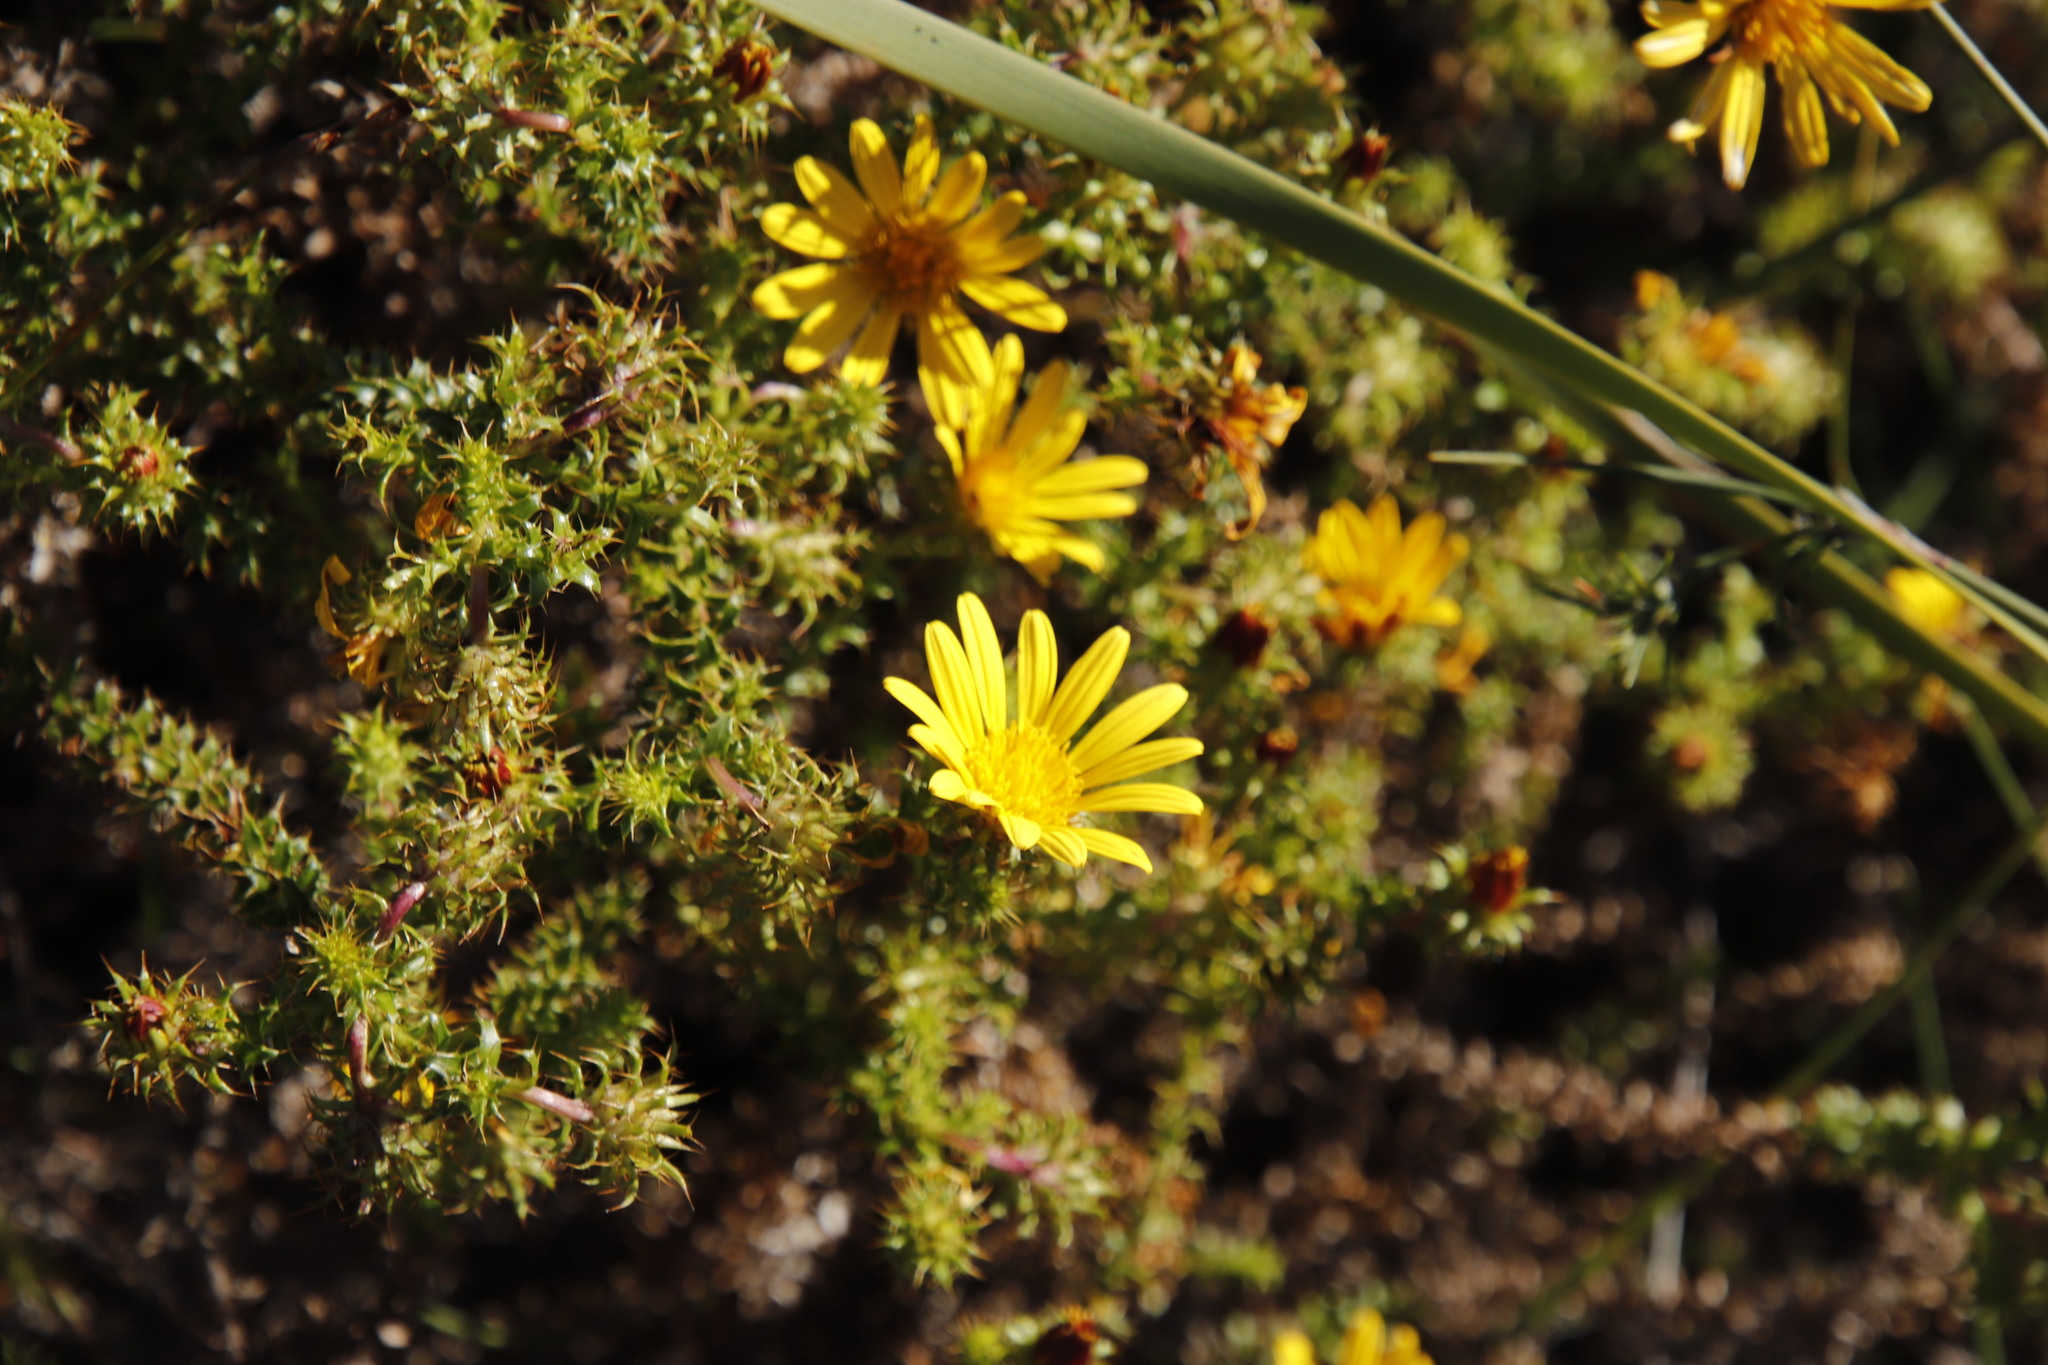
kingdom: Plantae
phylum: Tracheophyta
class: Magnoliopsida
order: Asterales
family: Asteraceae
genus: Cullumia
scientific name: Cullumia setosa
